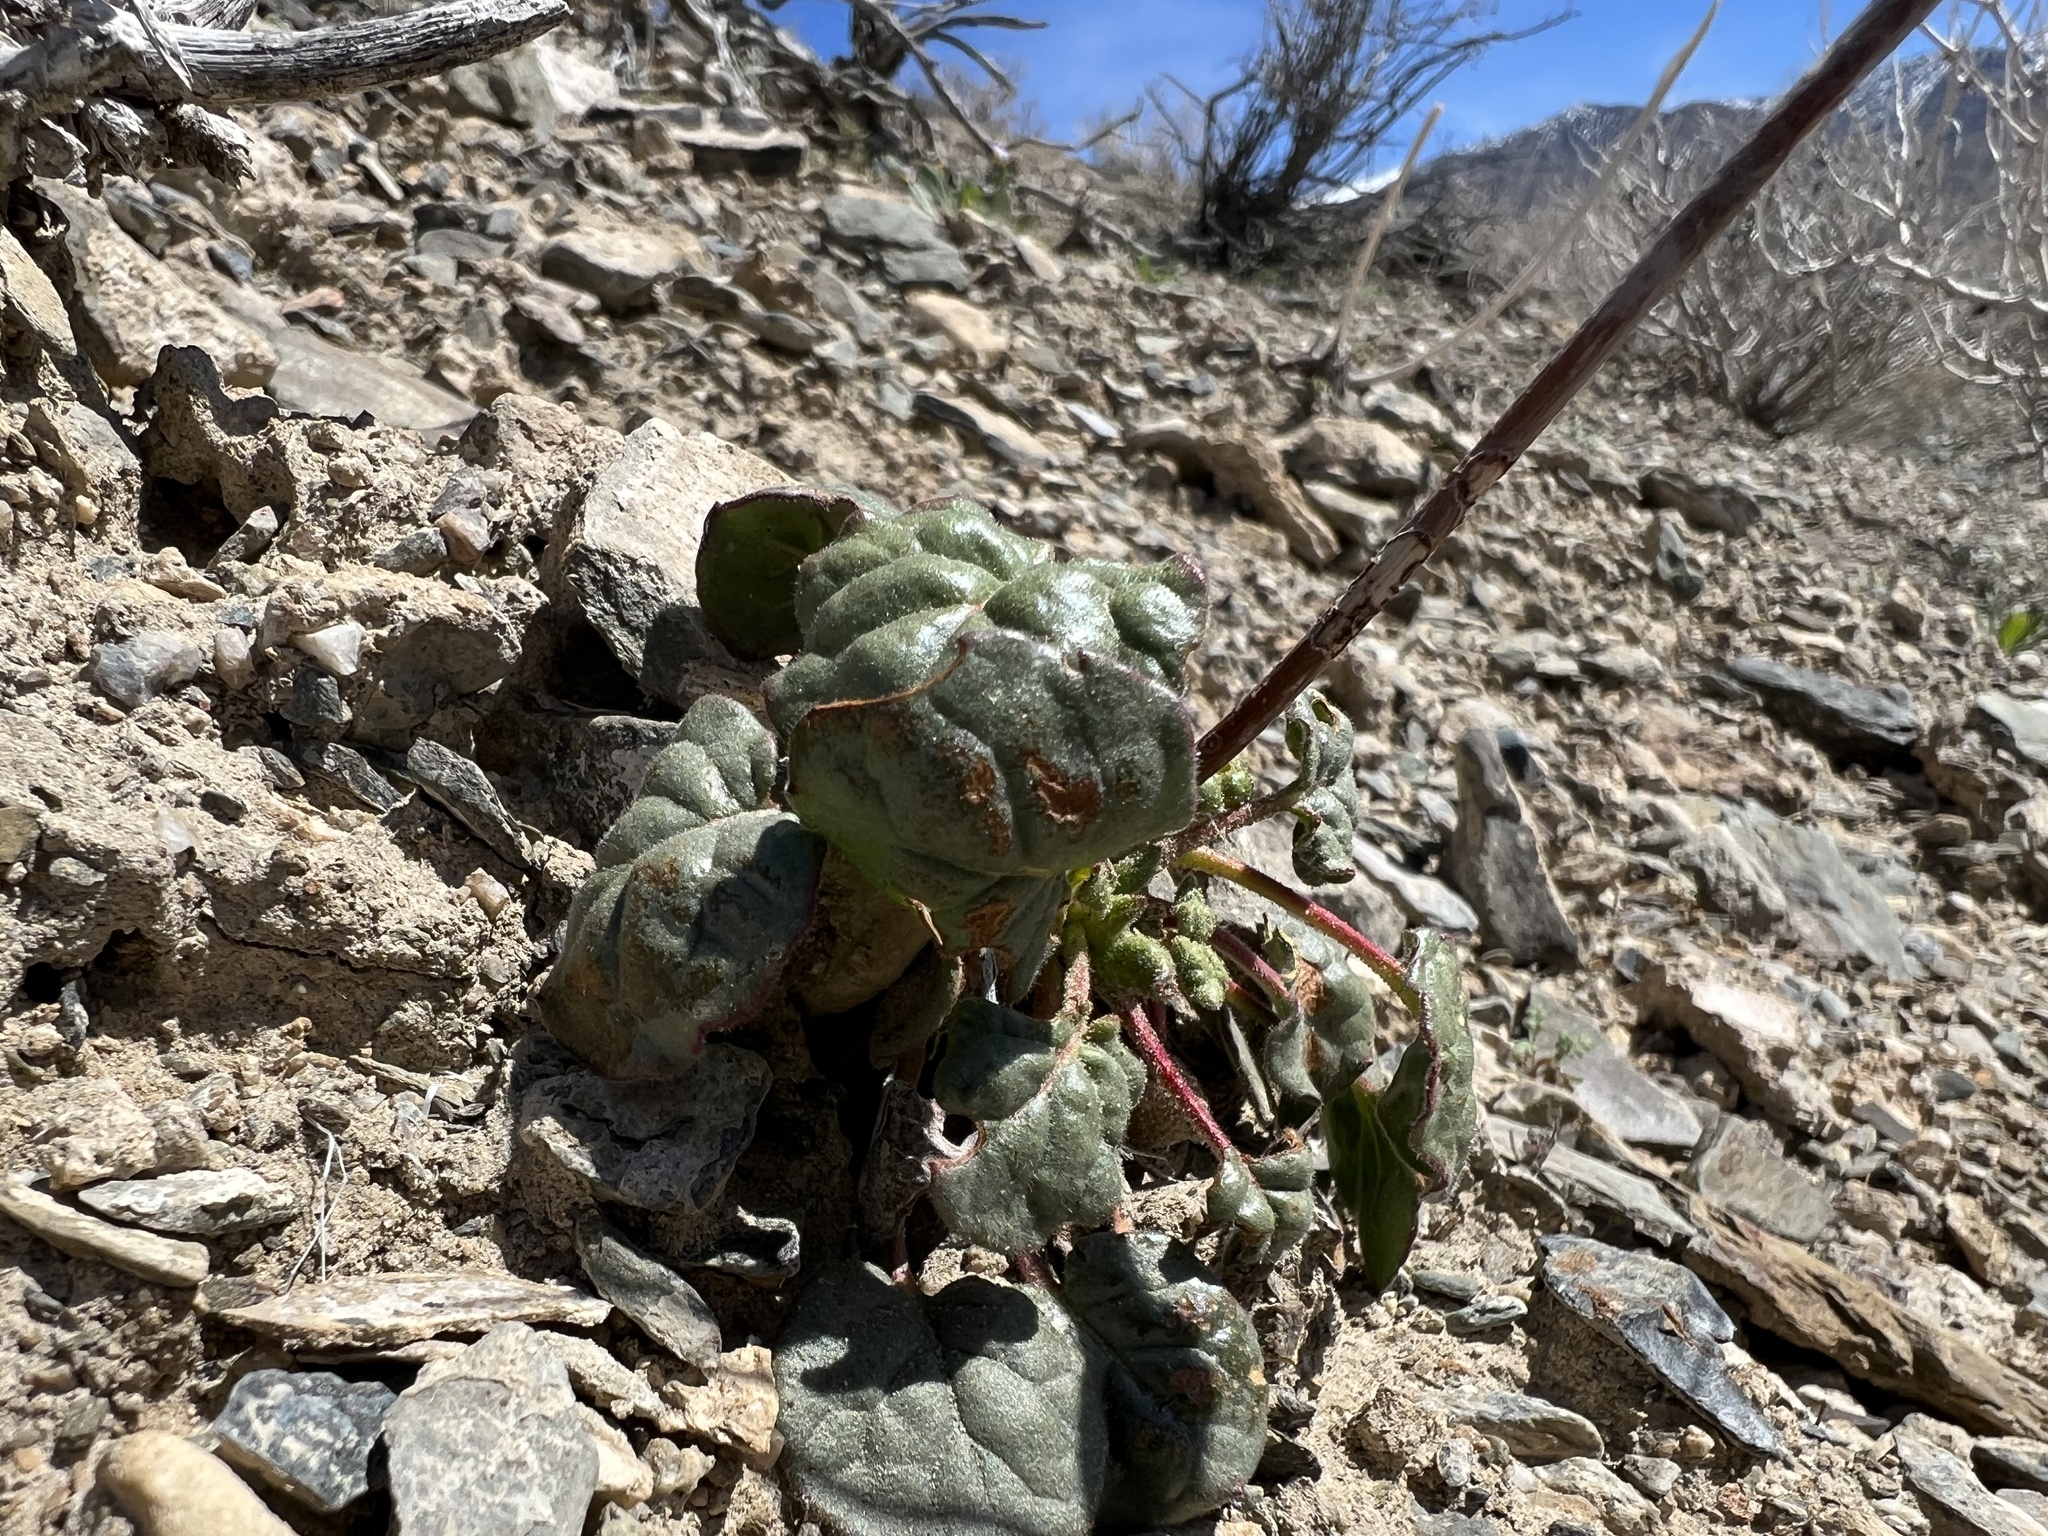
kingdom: Plantae
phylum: Tracheophyta
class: Magnoliopsida
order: Caryophyllales
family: Polygonaceae
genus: Eriogonum
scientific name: Eriogonum inflatum
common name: Desert trumpet
